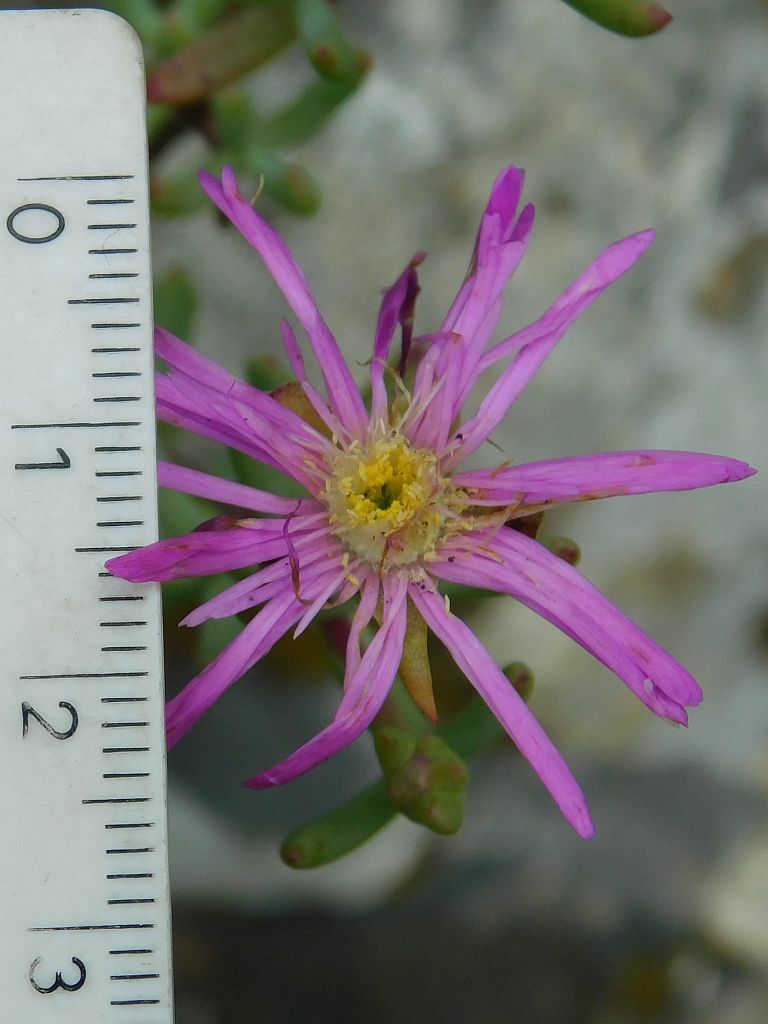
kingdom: Plantae
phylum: Tracheophyta
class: Magnoliopsida
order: Caryophyllales
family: Aizoaceae
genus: Lampranthus
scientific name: Lampranthus falcatus
